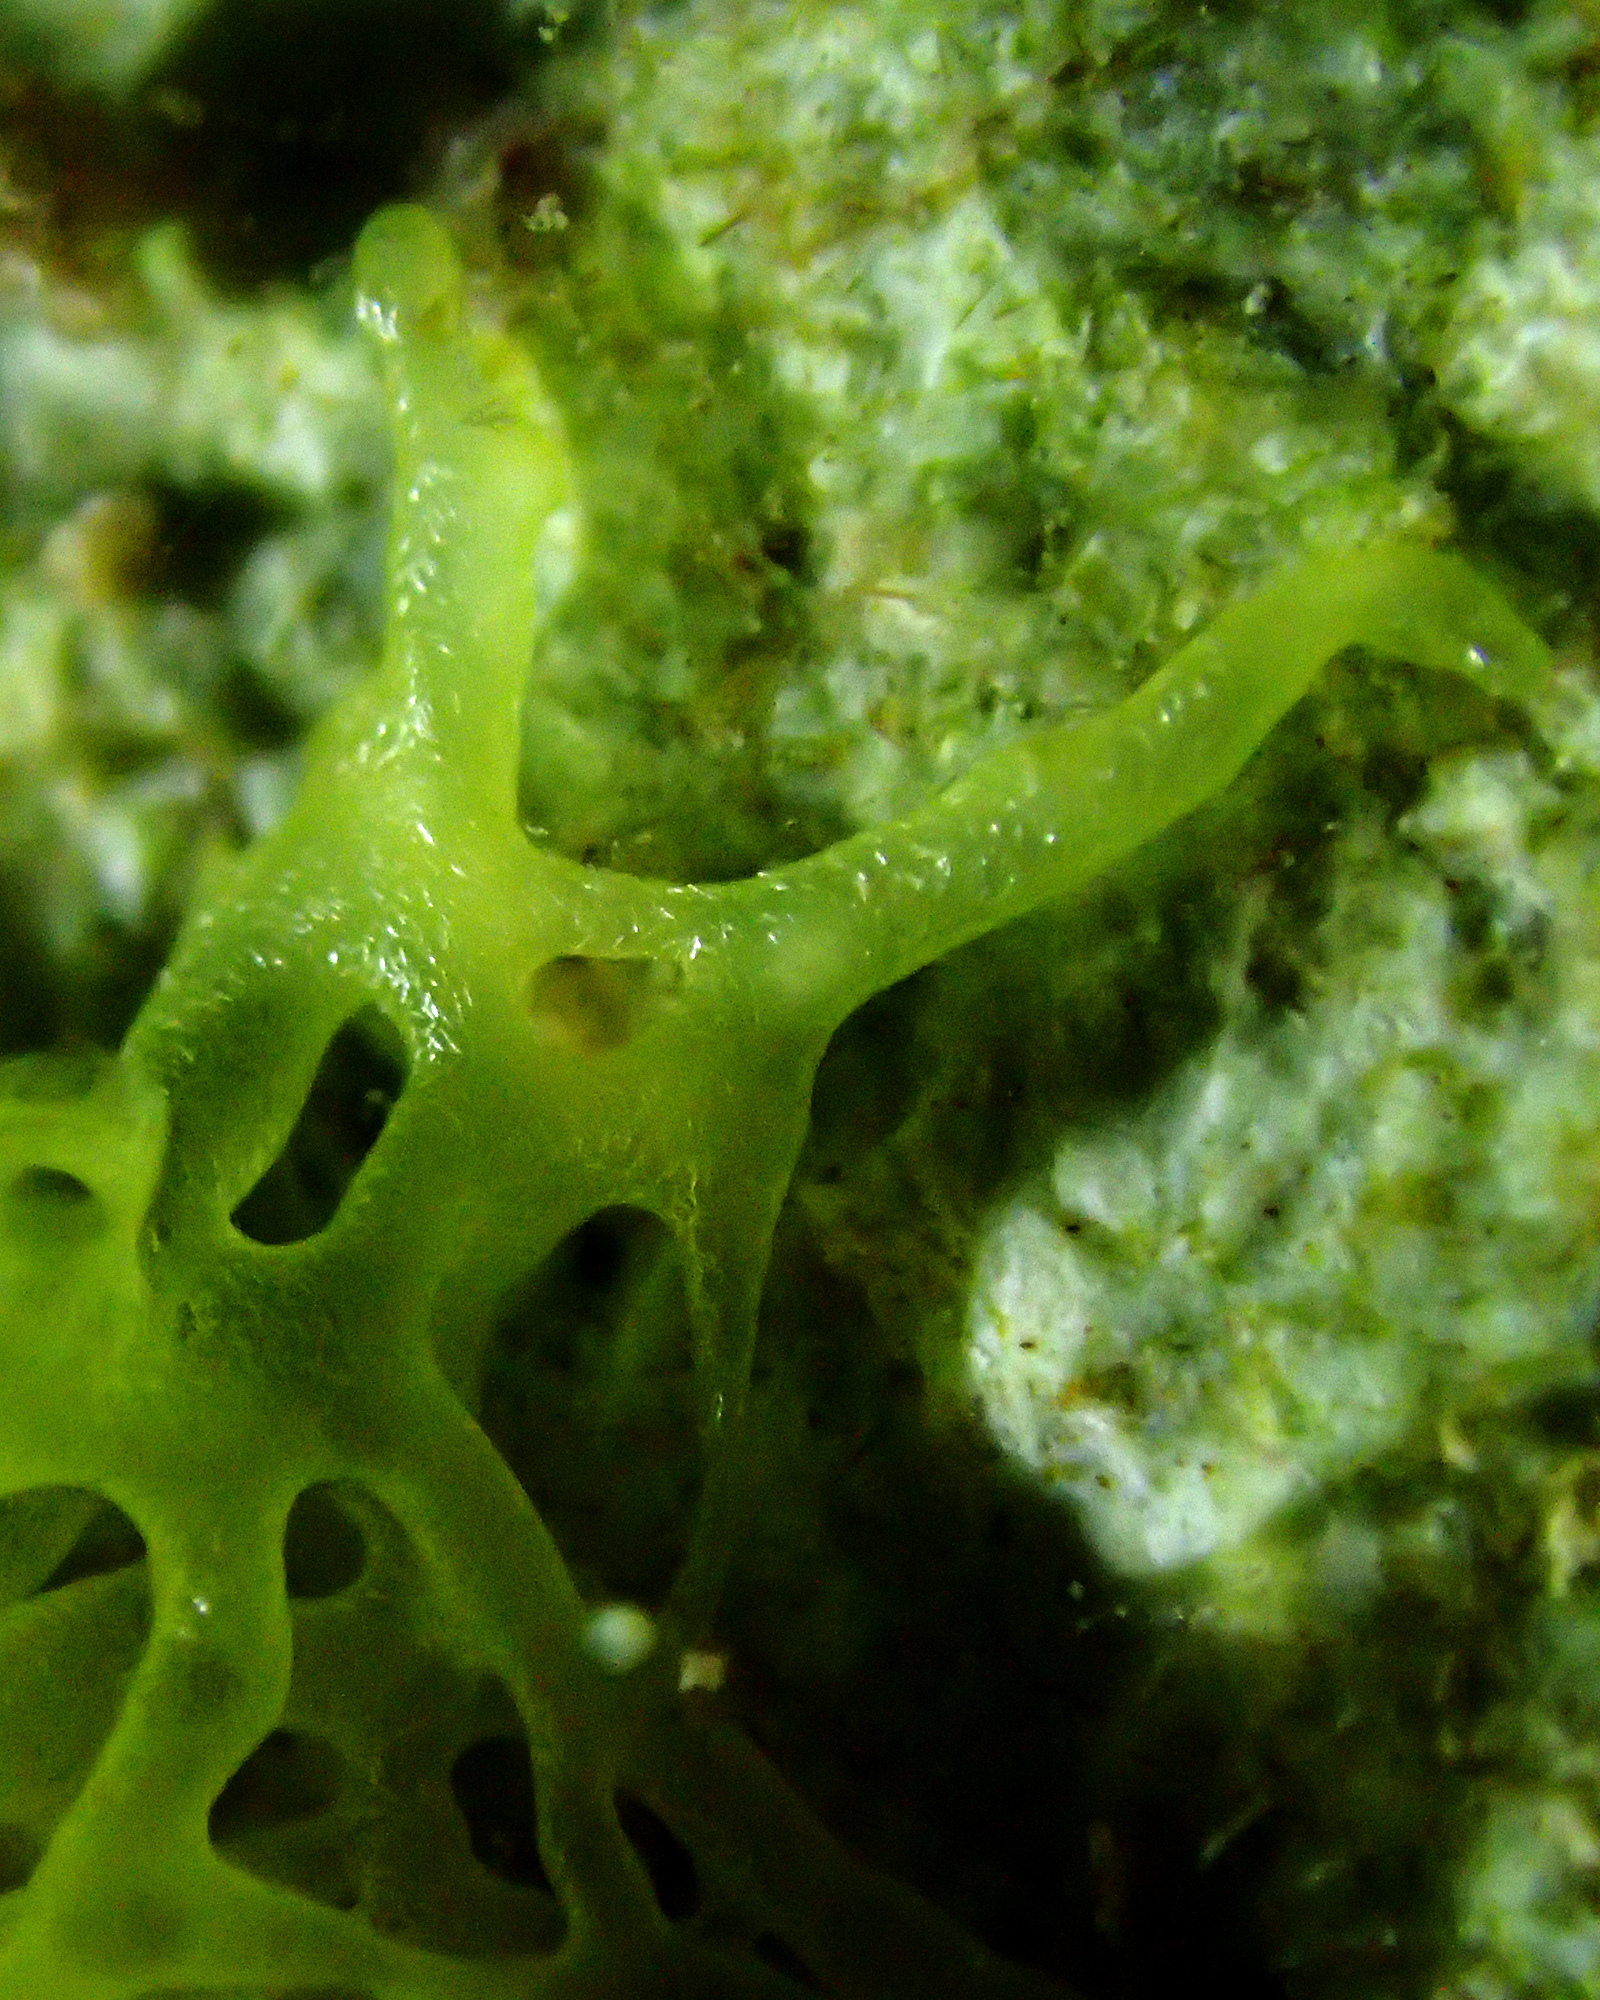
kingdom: Animalia
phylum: Porifera
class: Calcarea
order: Clathrinida
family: Clathrinidae
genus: Clathrina
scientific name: Clathrina clathrus
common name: Yellow clathrina
